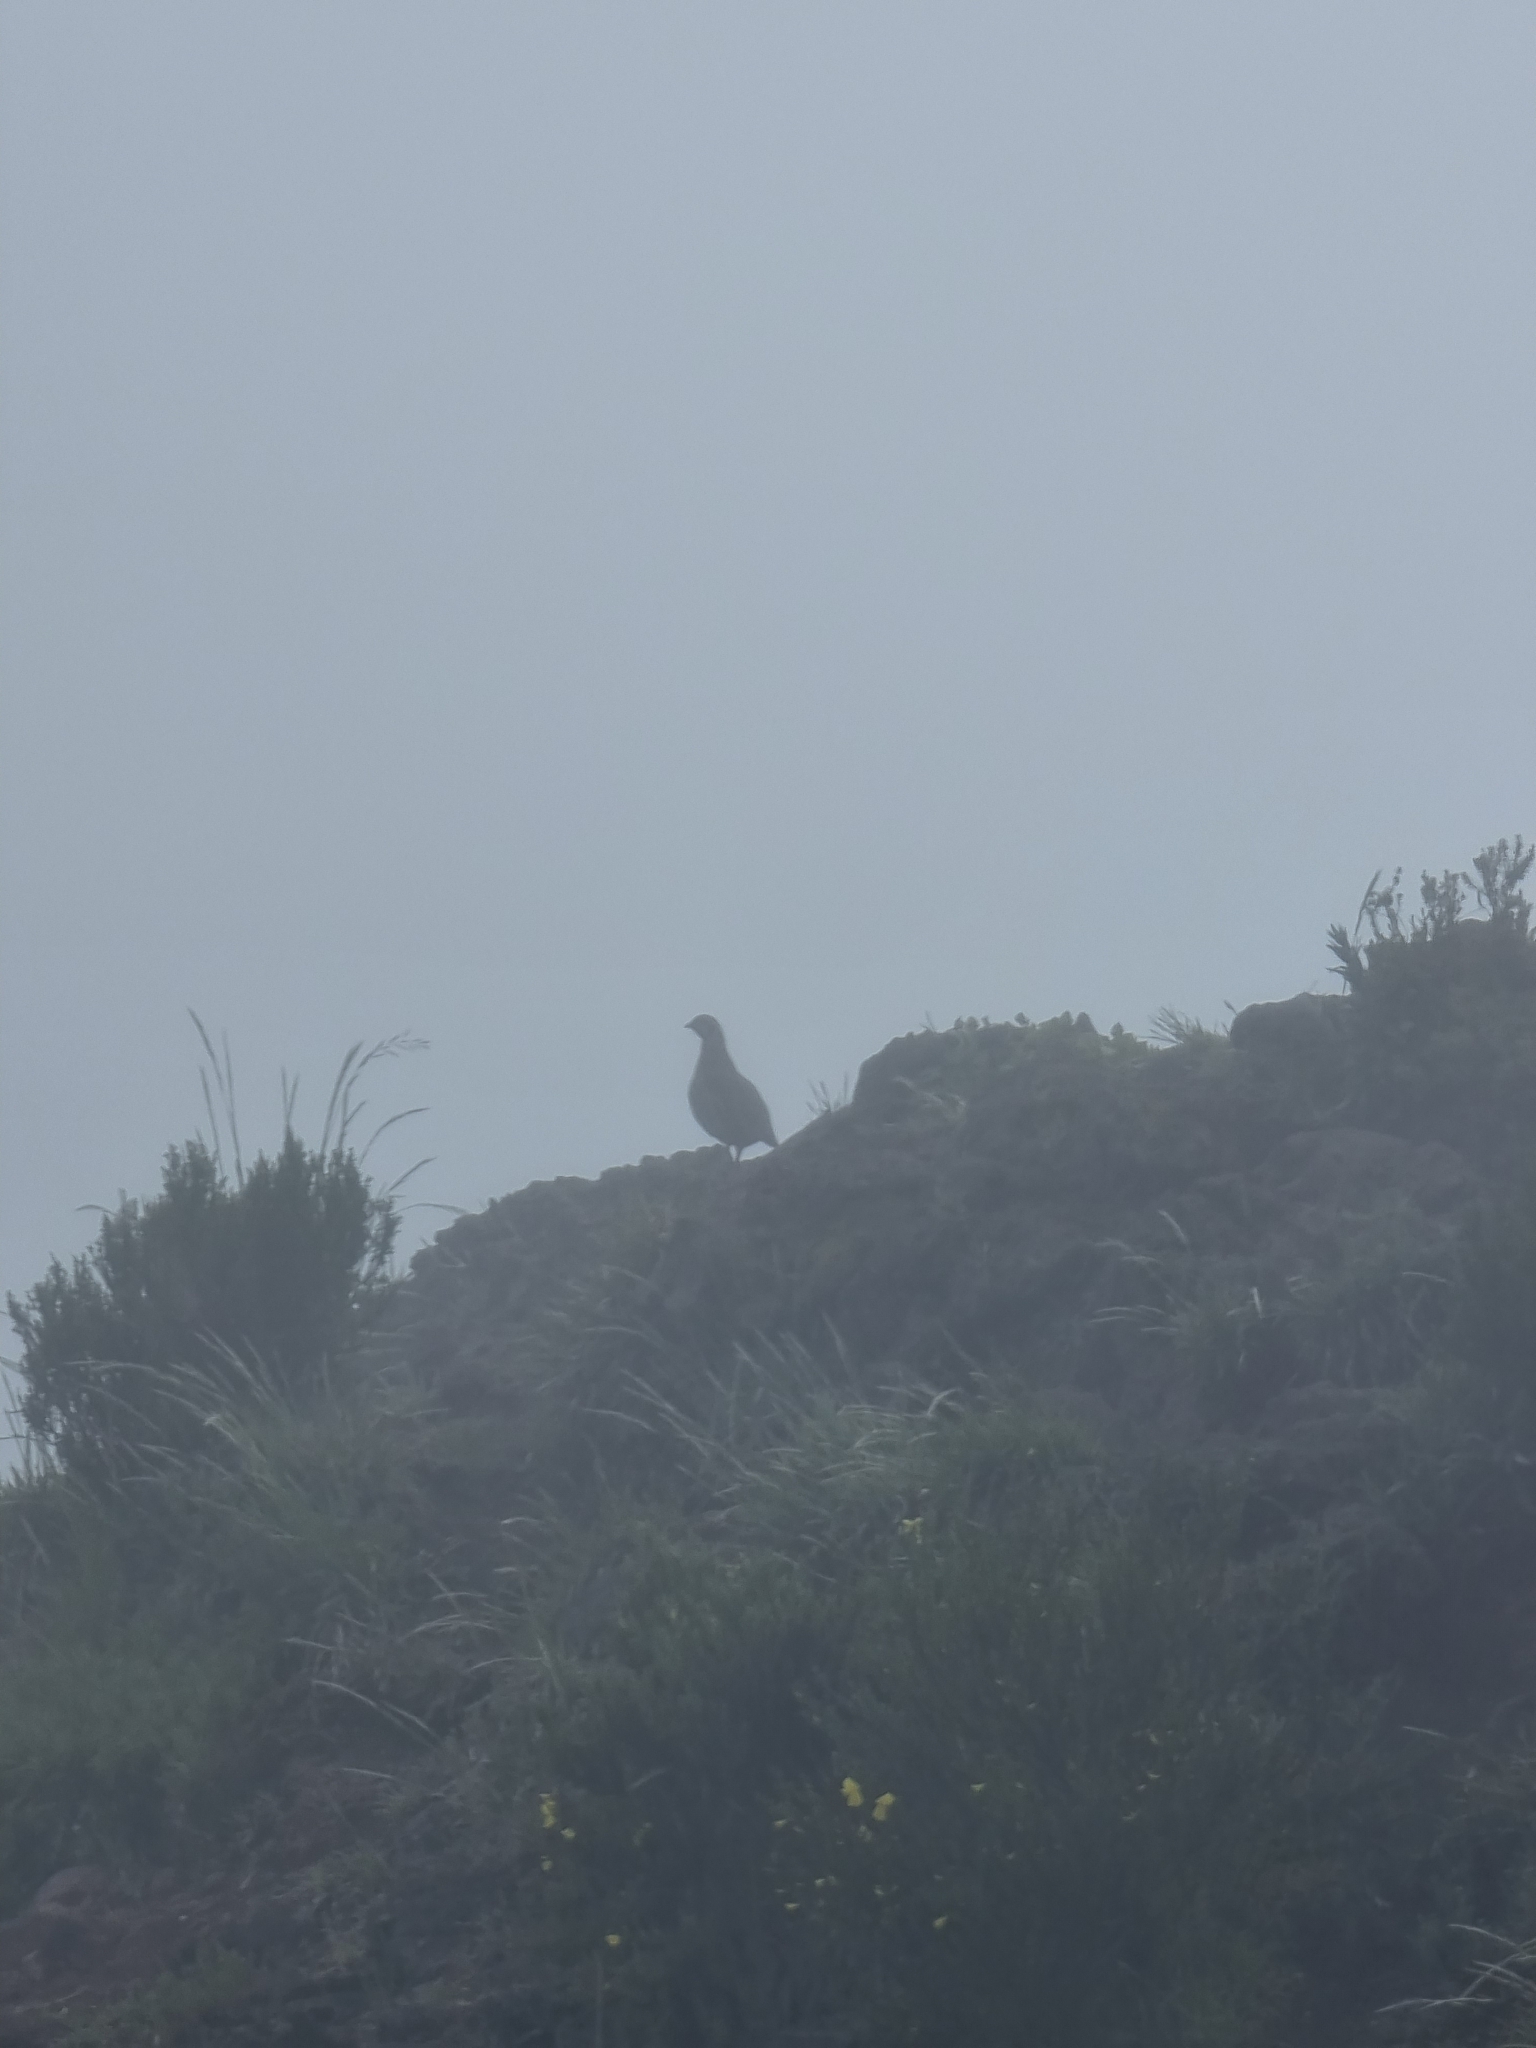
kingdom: Animalia
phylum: Chordata
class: Aves
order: Galliformes
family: Phasianidae
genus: Alectoris
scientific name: Alectoris rufa
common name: Red-legged partridge
